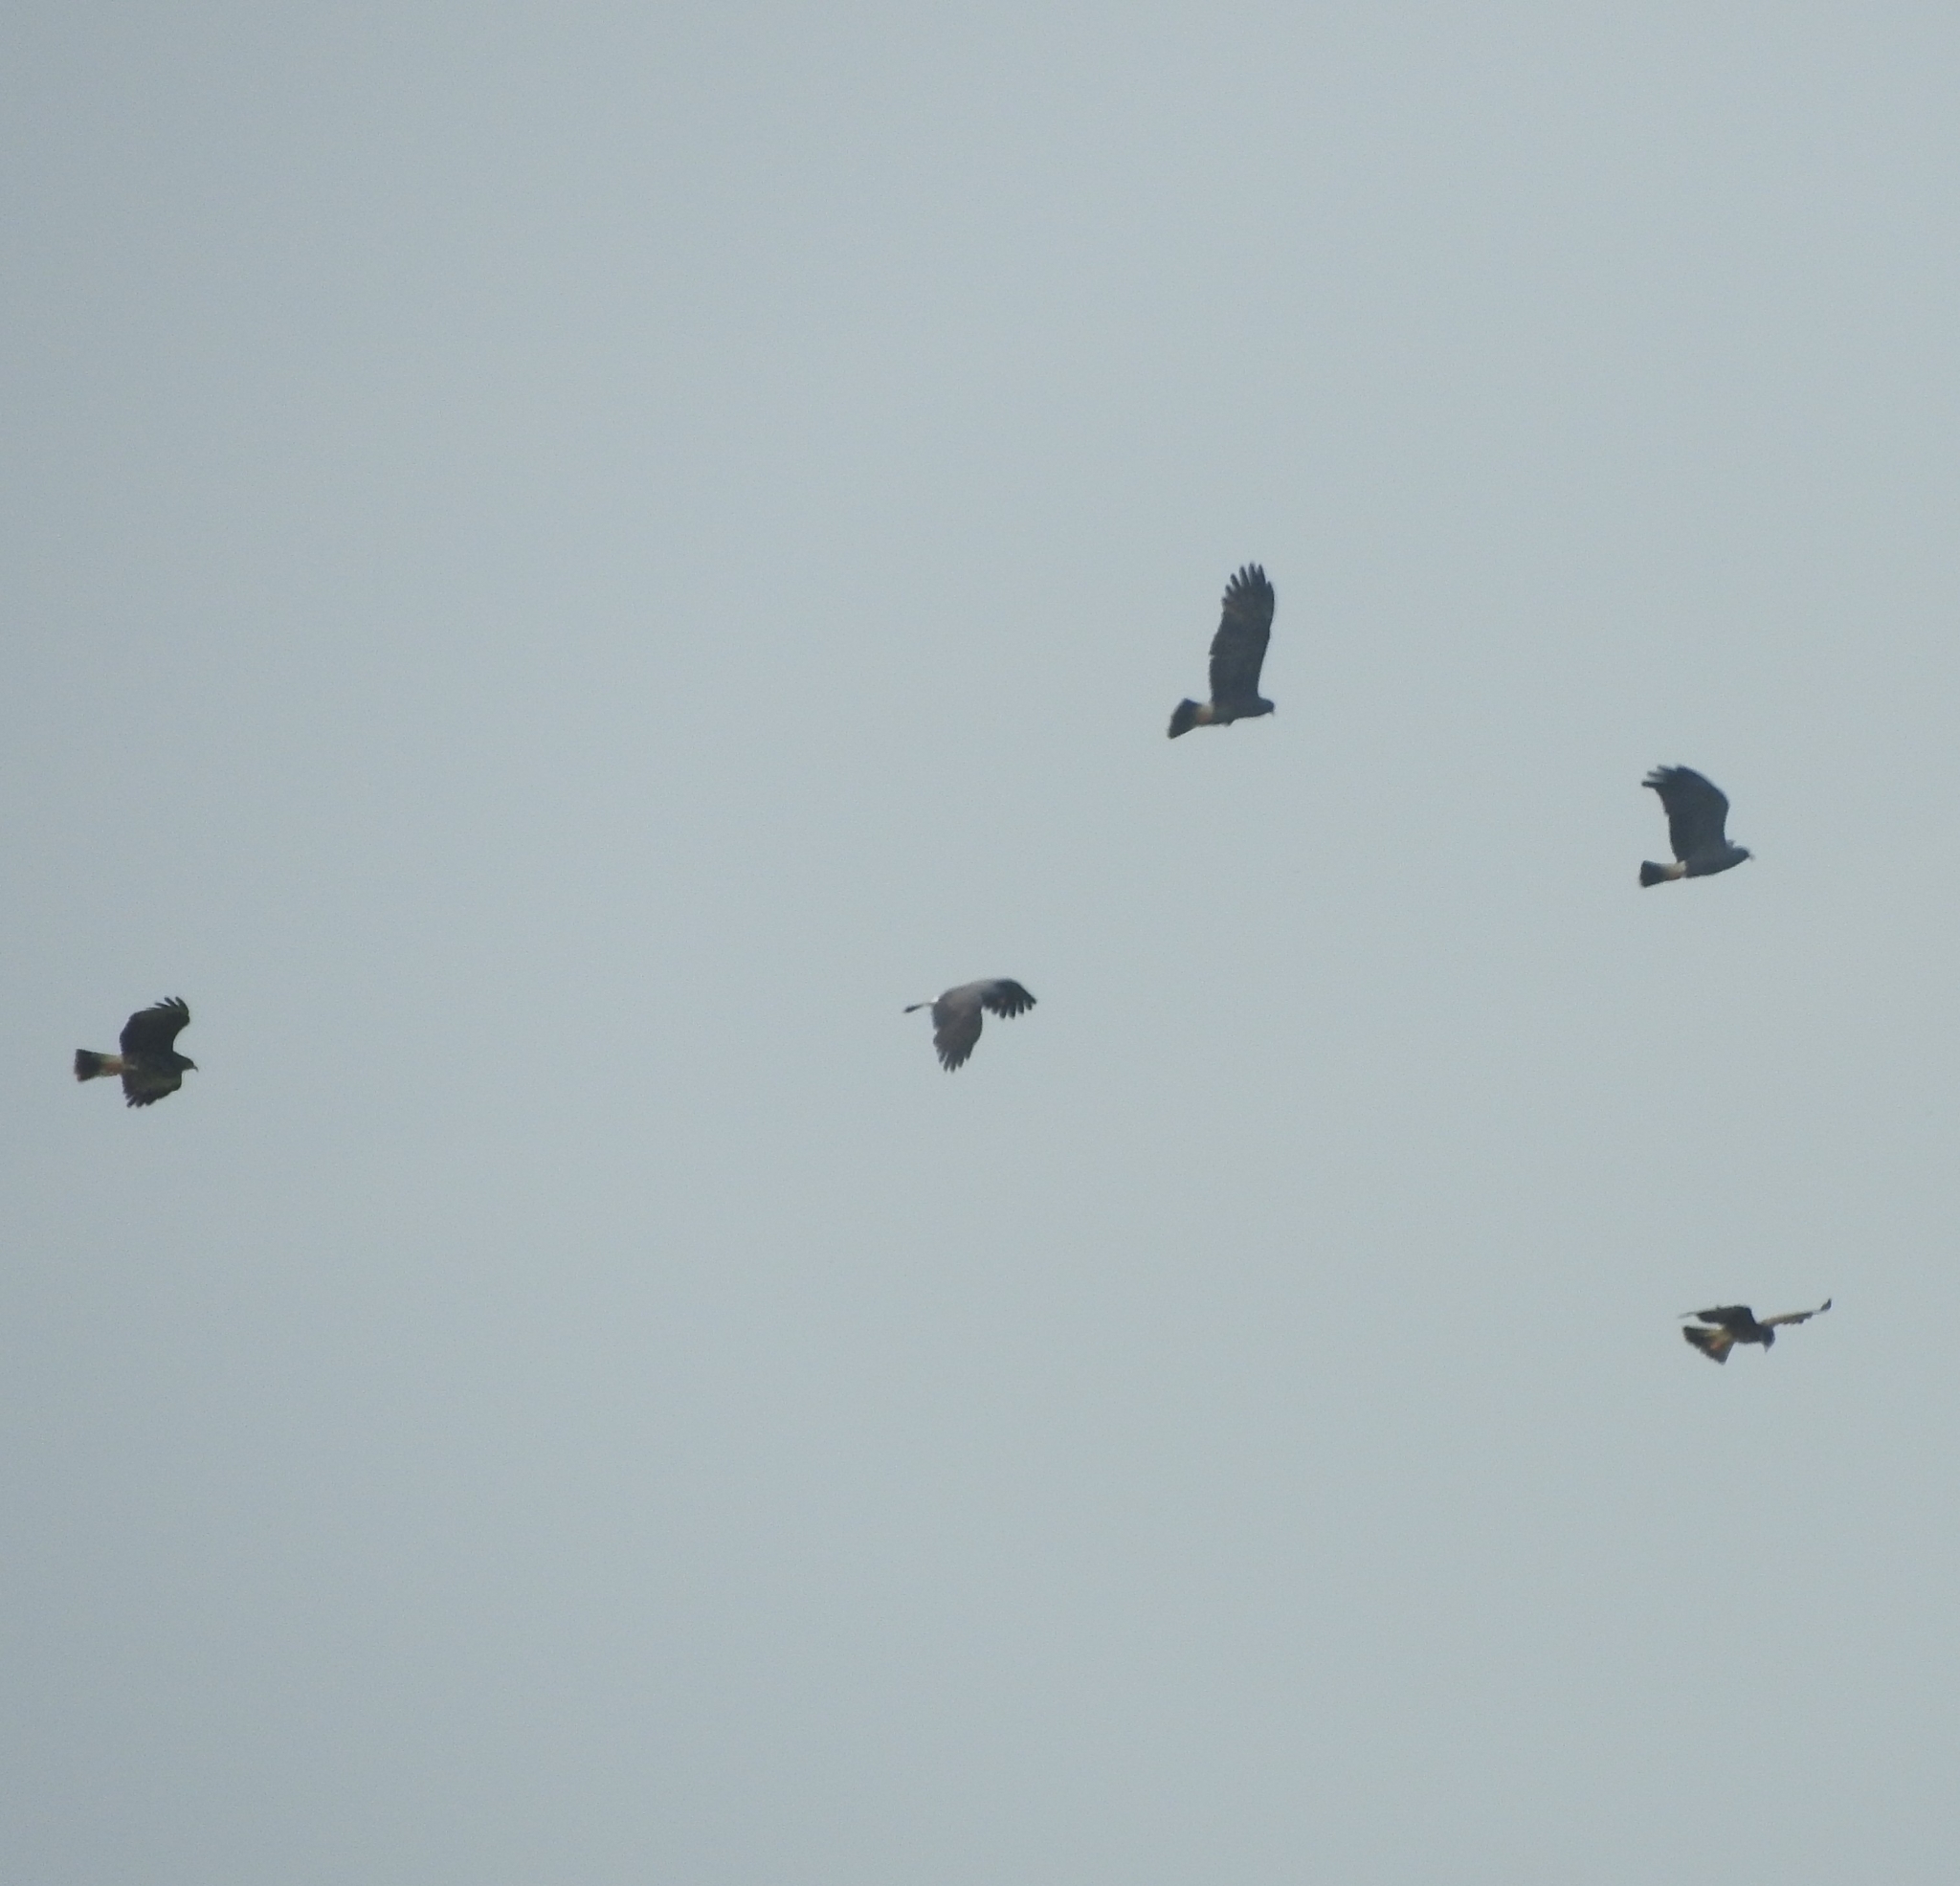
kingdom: Animalia
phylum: Chordata
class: Aves
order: Accipitriformes
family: Accipitridae
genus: Rostrhamus
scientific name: Rostrhamus sociabilis
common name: Snail kite
